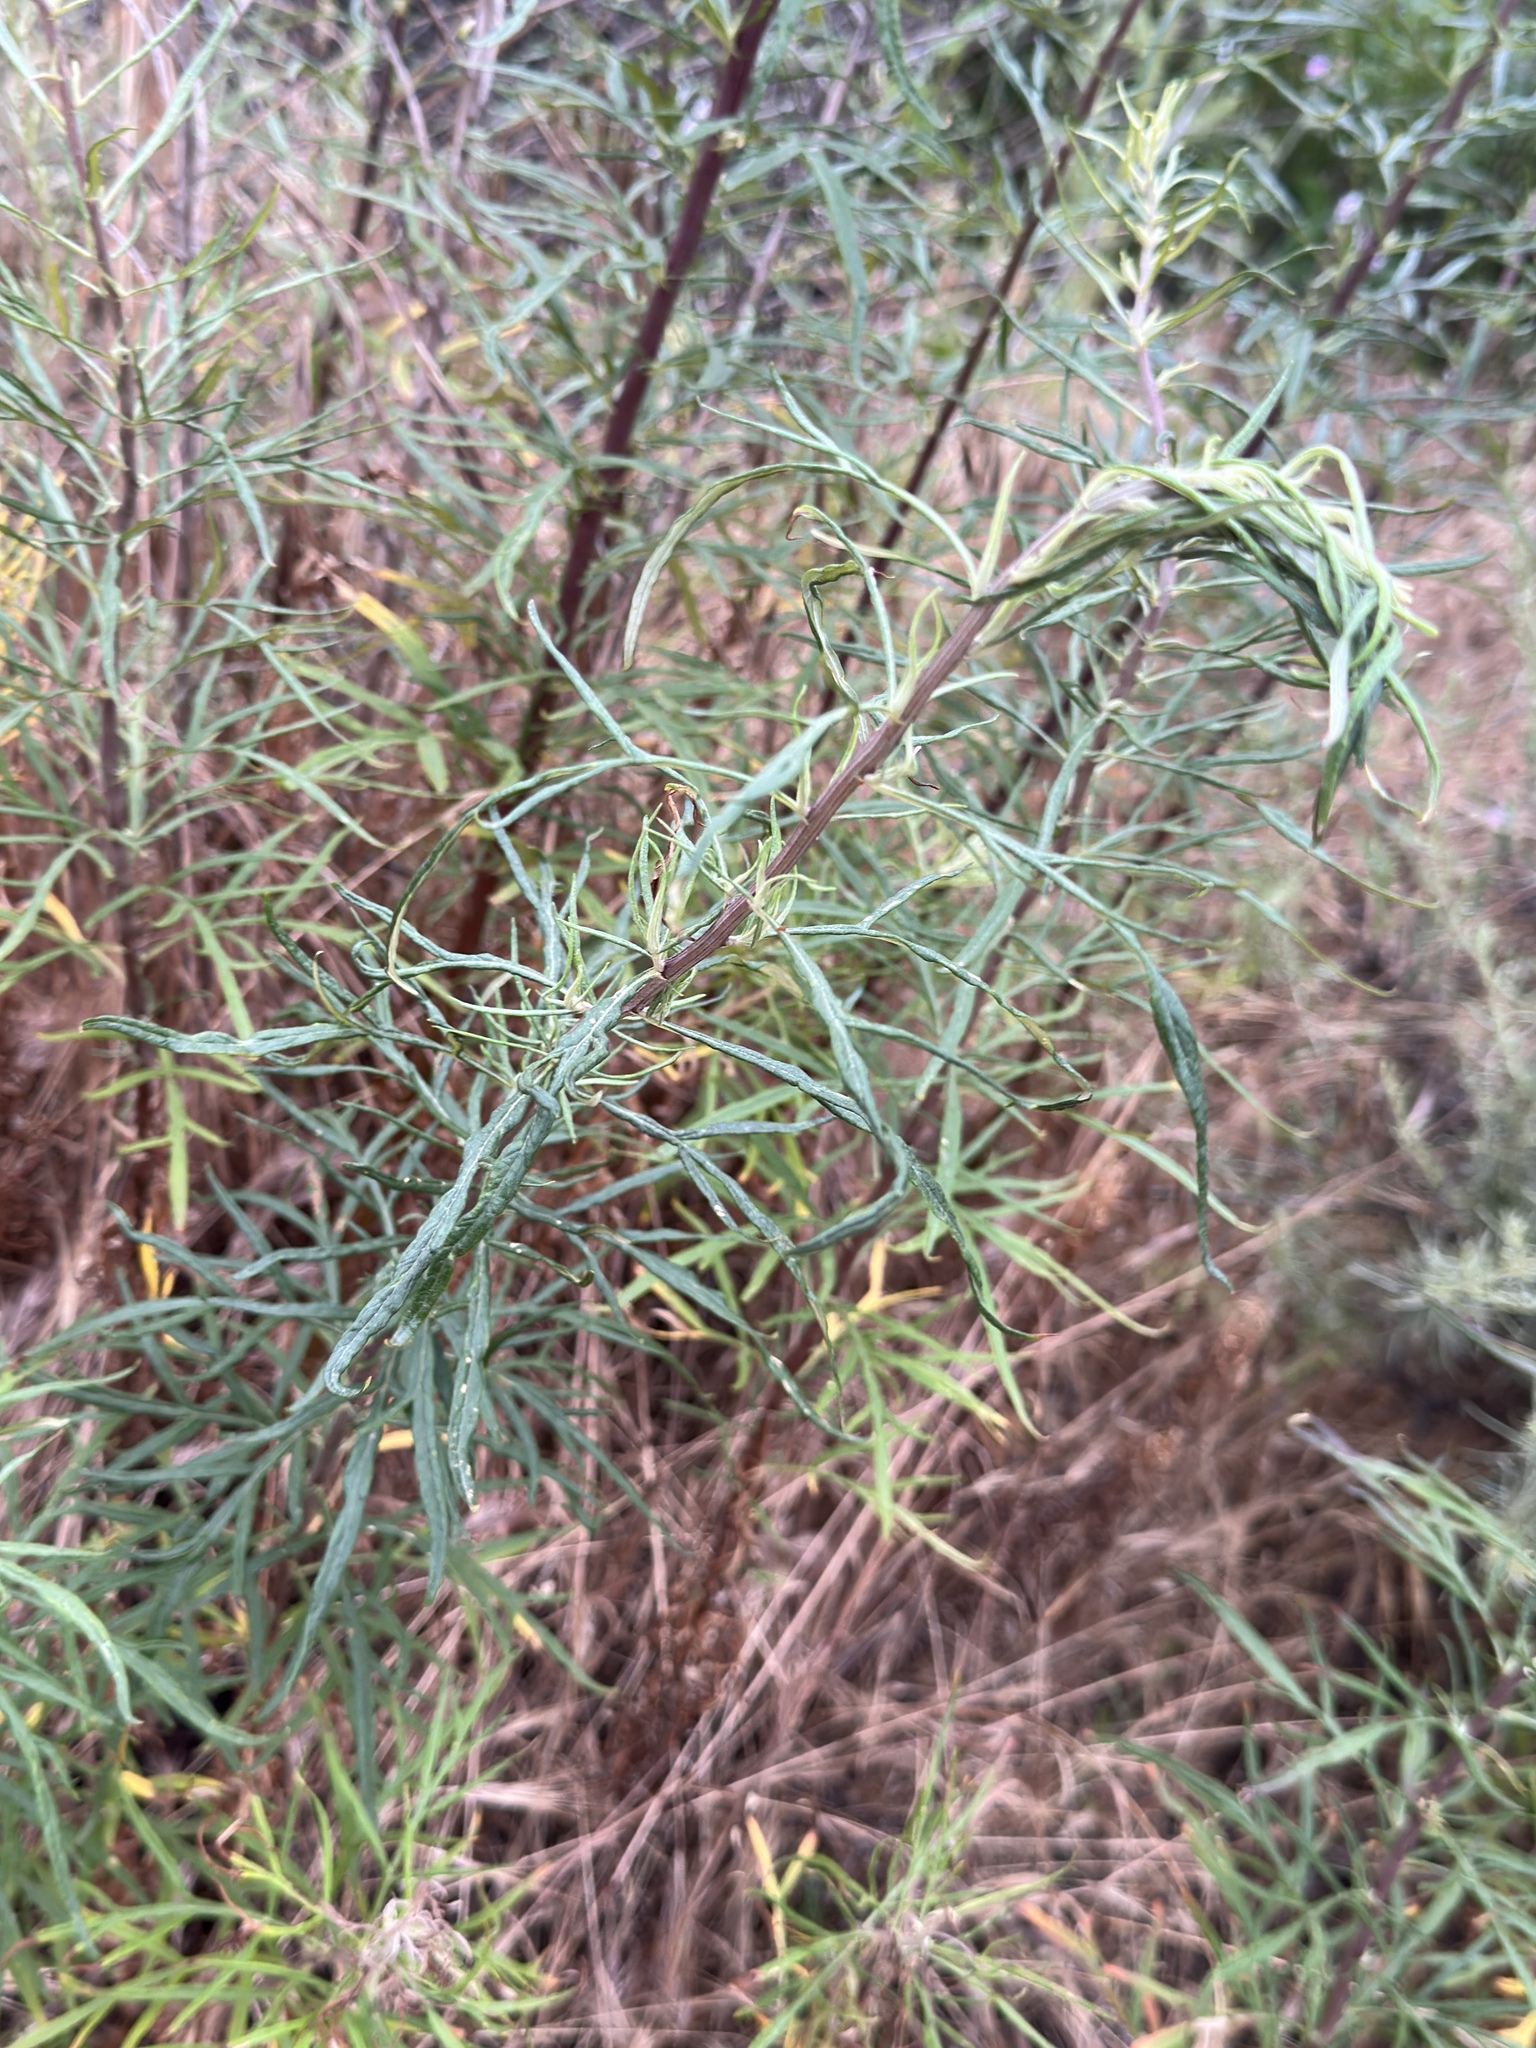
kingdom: Plantae
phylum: Tracheophyta
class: Magnoliopsida
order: Asterales
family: Asteraceae
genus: Artemisia
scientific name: Artemisia palmeri
